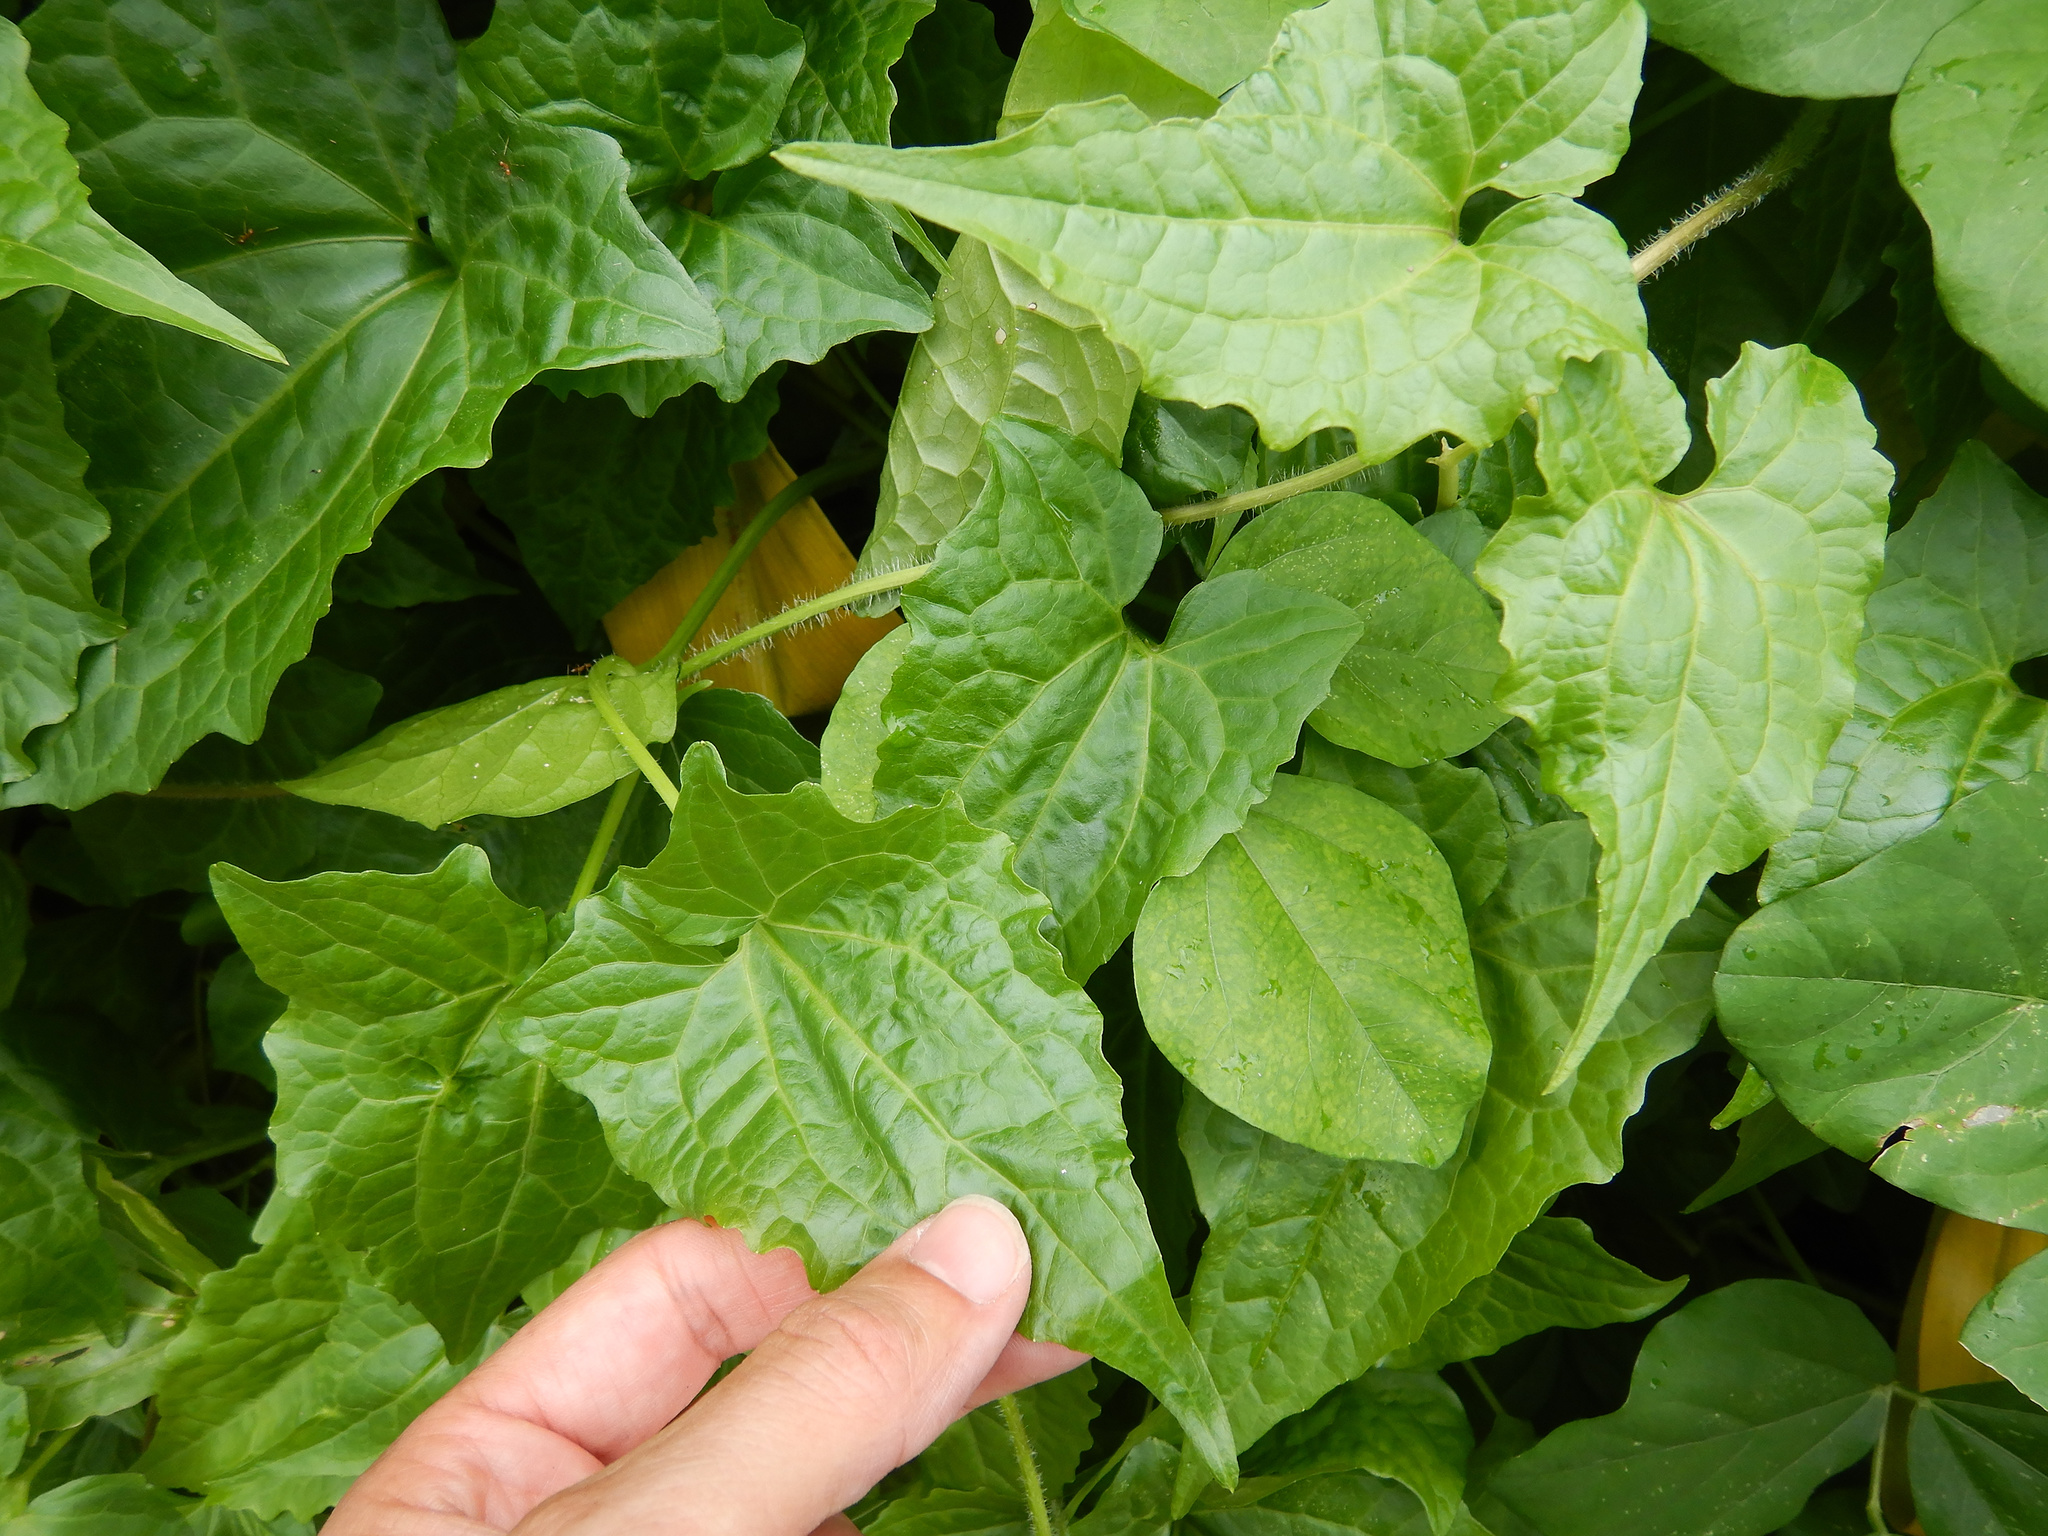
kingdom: Plantae
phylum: Tracheophyta
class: Magnoliopsida
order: Asterales
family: Asteraceae
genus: Mikania
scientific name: Mikania micrantha
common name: Mile-a-minute
